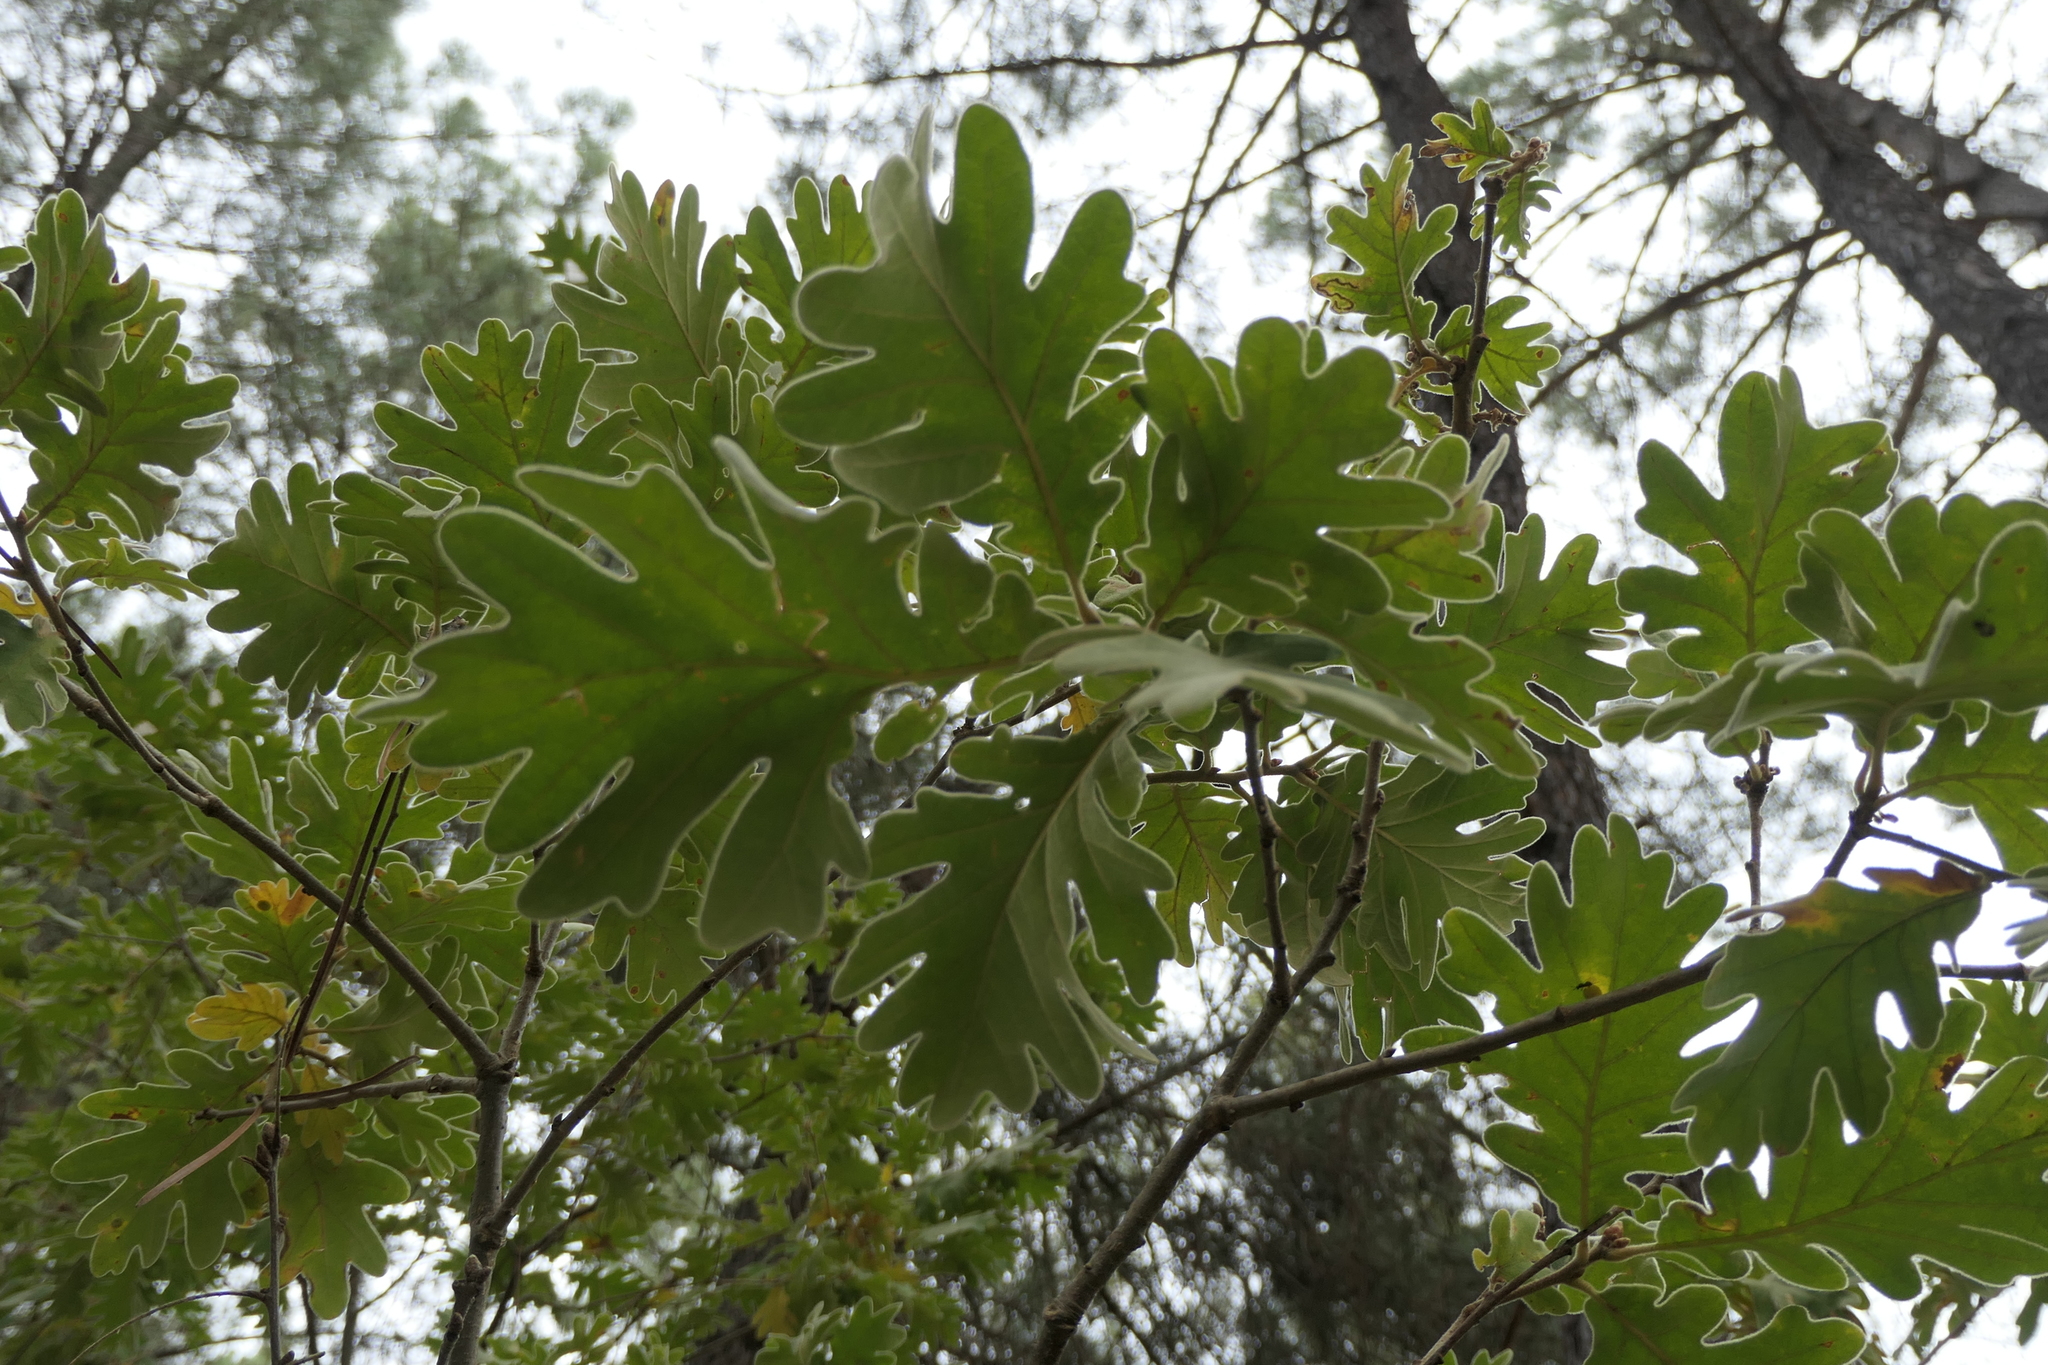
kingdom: Plantae
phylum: Tracheophyta
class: Magnoliopsida
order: Fagales
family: Fagaceae
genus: Quercus
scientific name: Quercus pyrenaica
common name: Pyrenean oak
